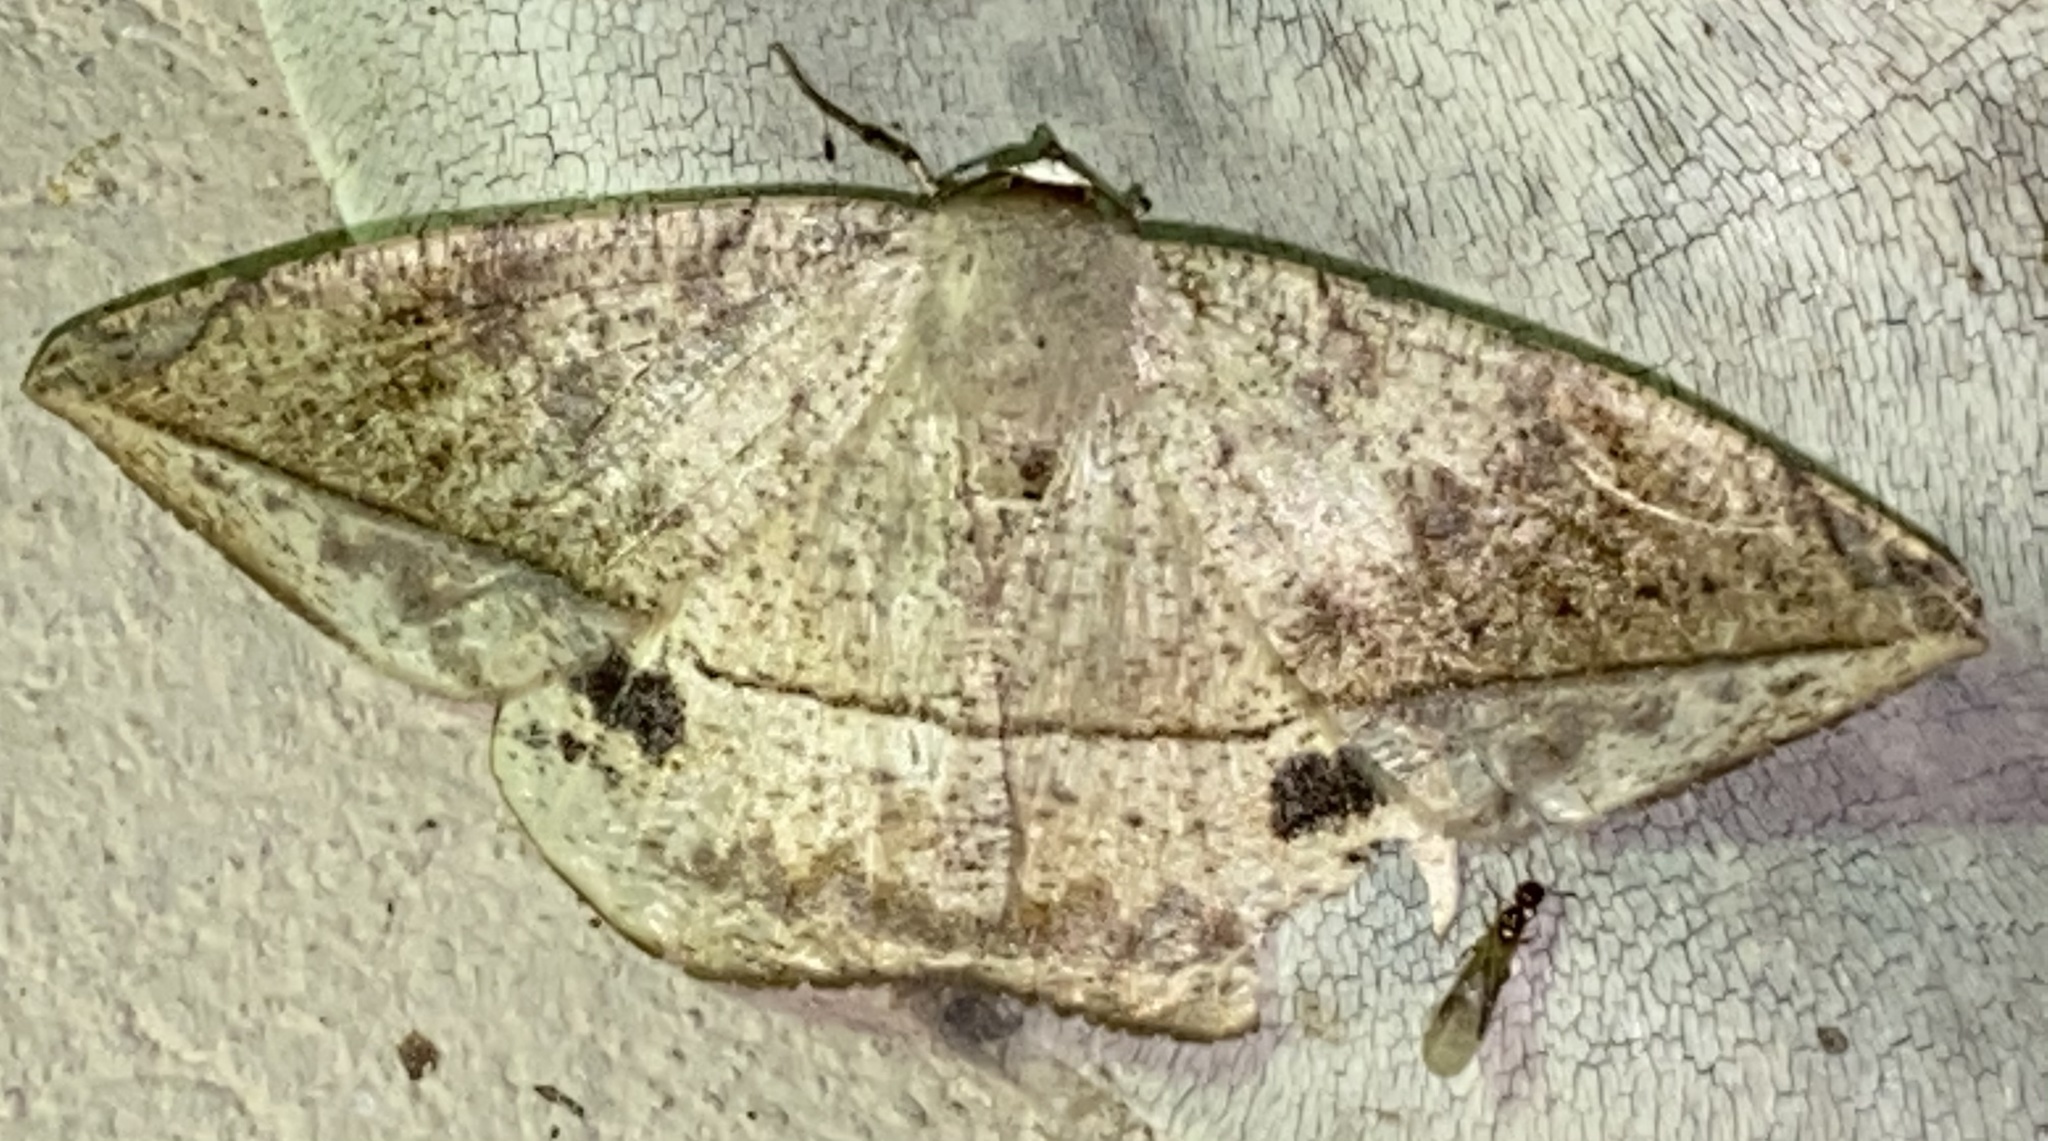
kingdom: Animalia
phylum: Arthropoda
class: Insecta
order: Lepidoptera
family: Geometridae
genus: Oxydia
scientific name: Oxydia vesulia
